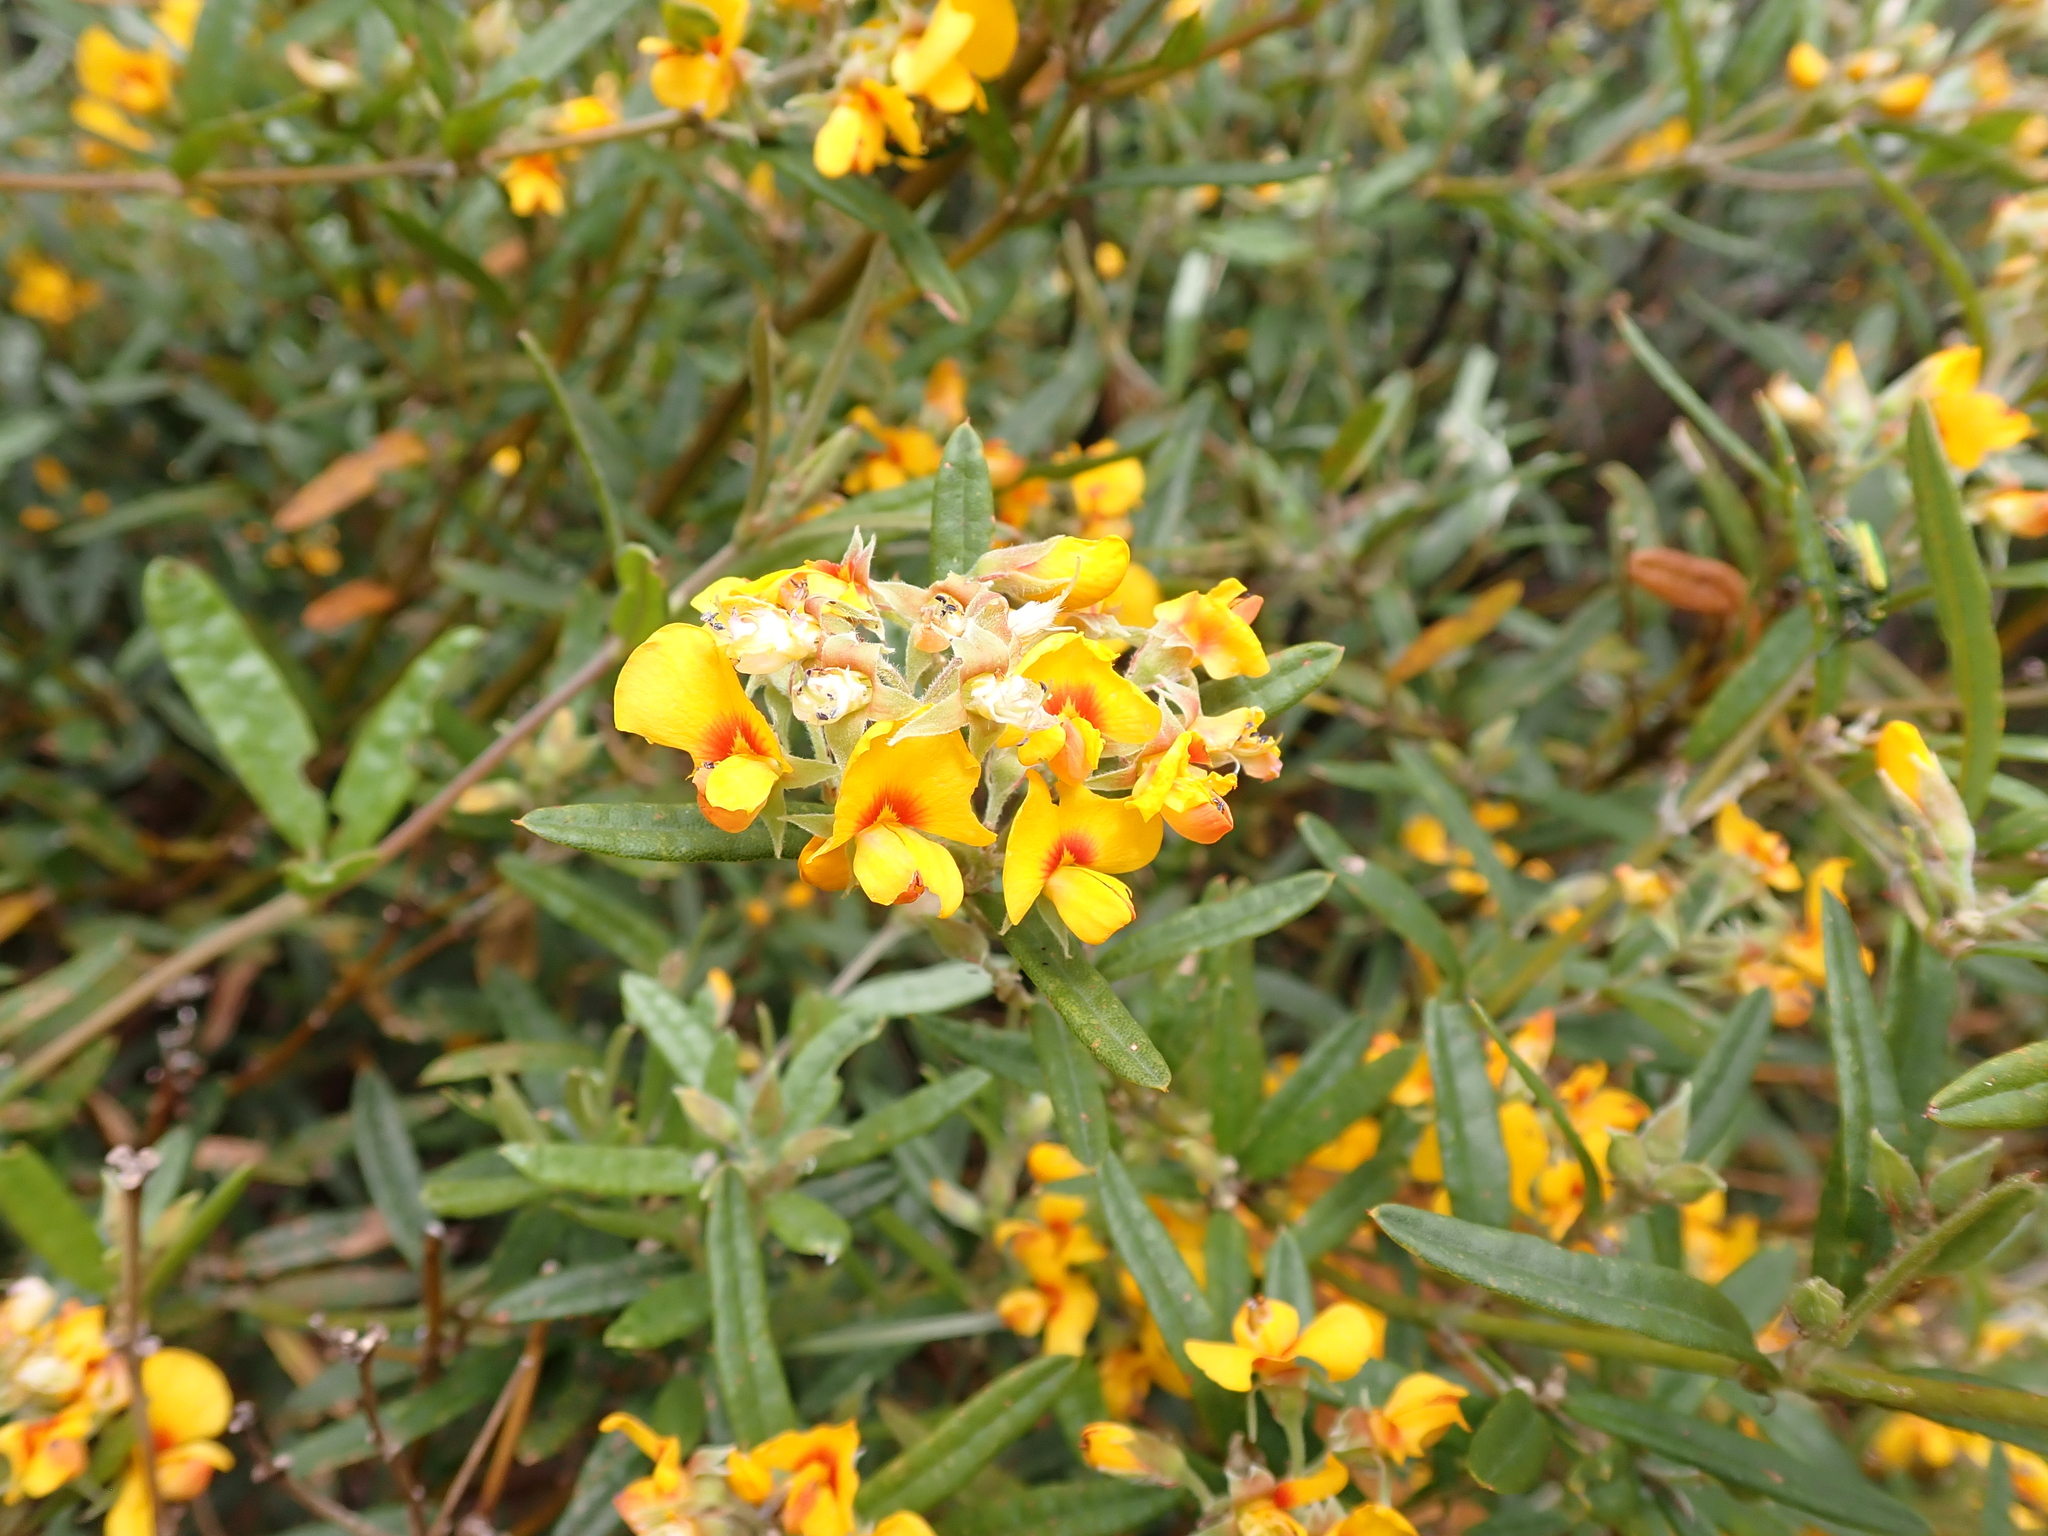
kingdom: Plantae
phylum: Tracheophyta
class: Magnoliopsida
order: Fabales
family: Fabaceae
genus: Podolobium
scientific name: Podolobium alpestre
